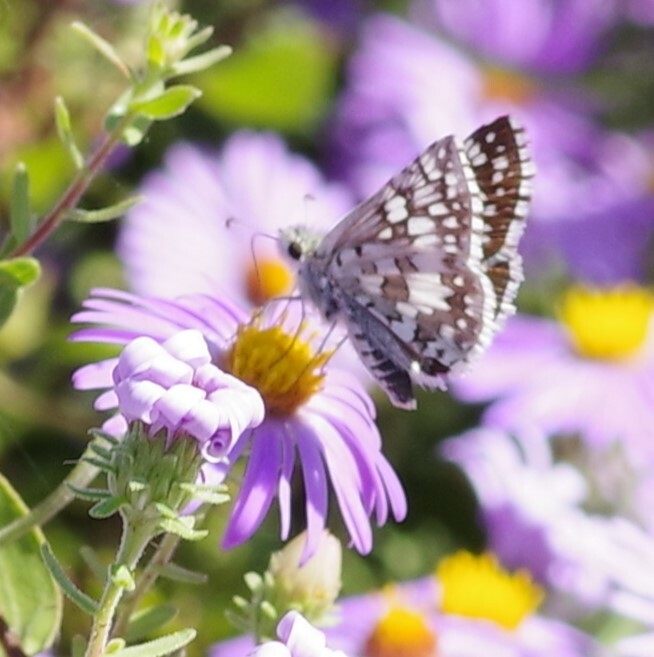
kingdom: Animalia
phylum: Arthropoda
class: Insecta
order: Lepidoptera
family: Hesperiidae
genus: Burnsius
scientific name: Burnsius communis
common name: Common checkered-skipper
